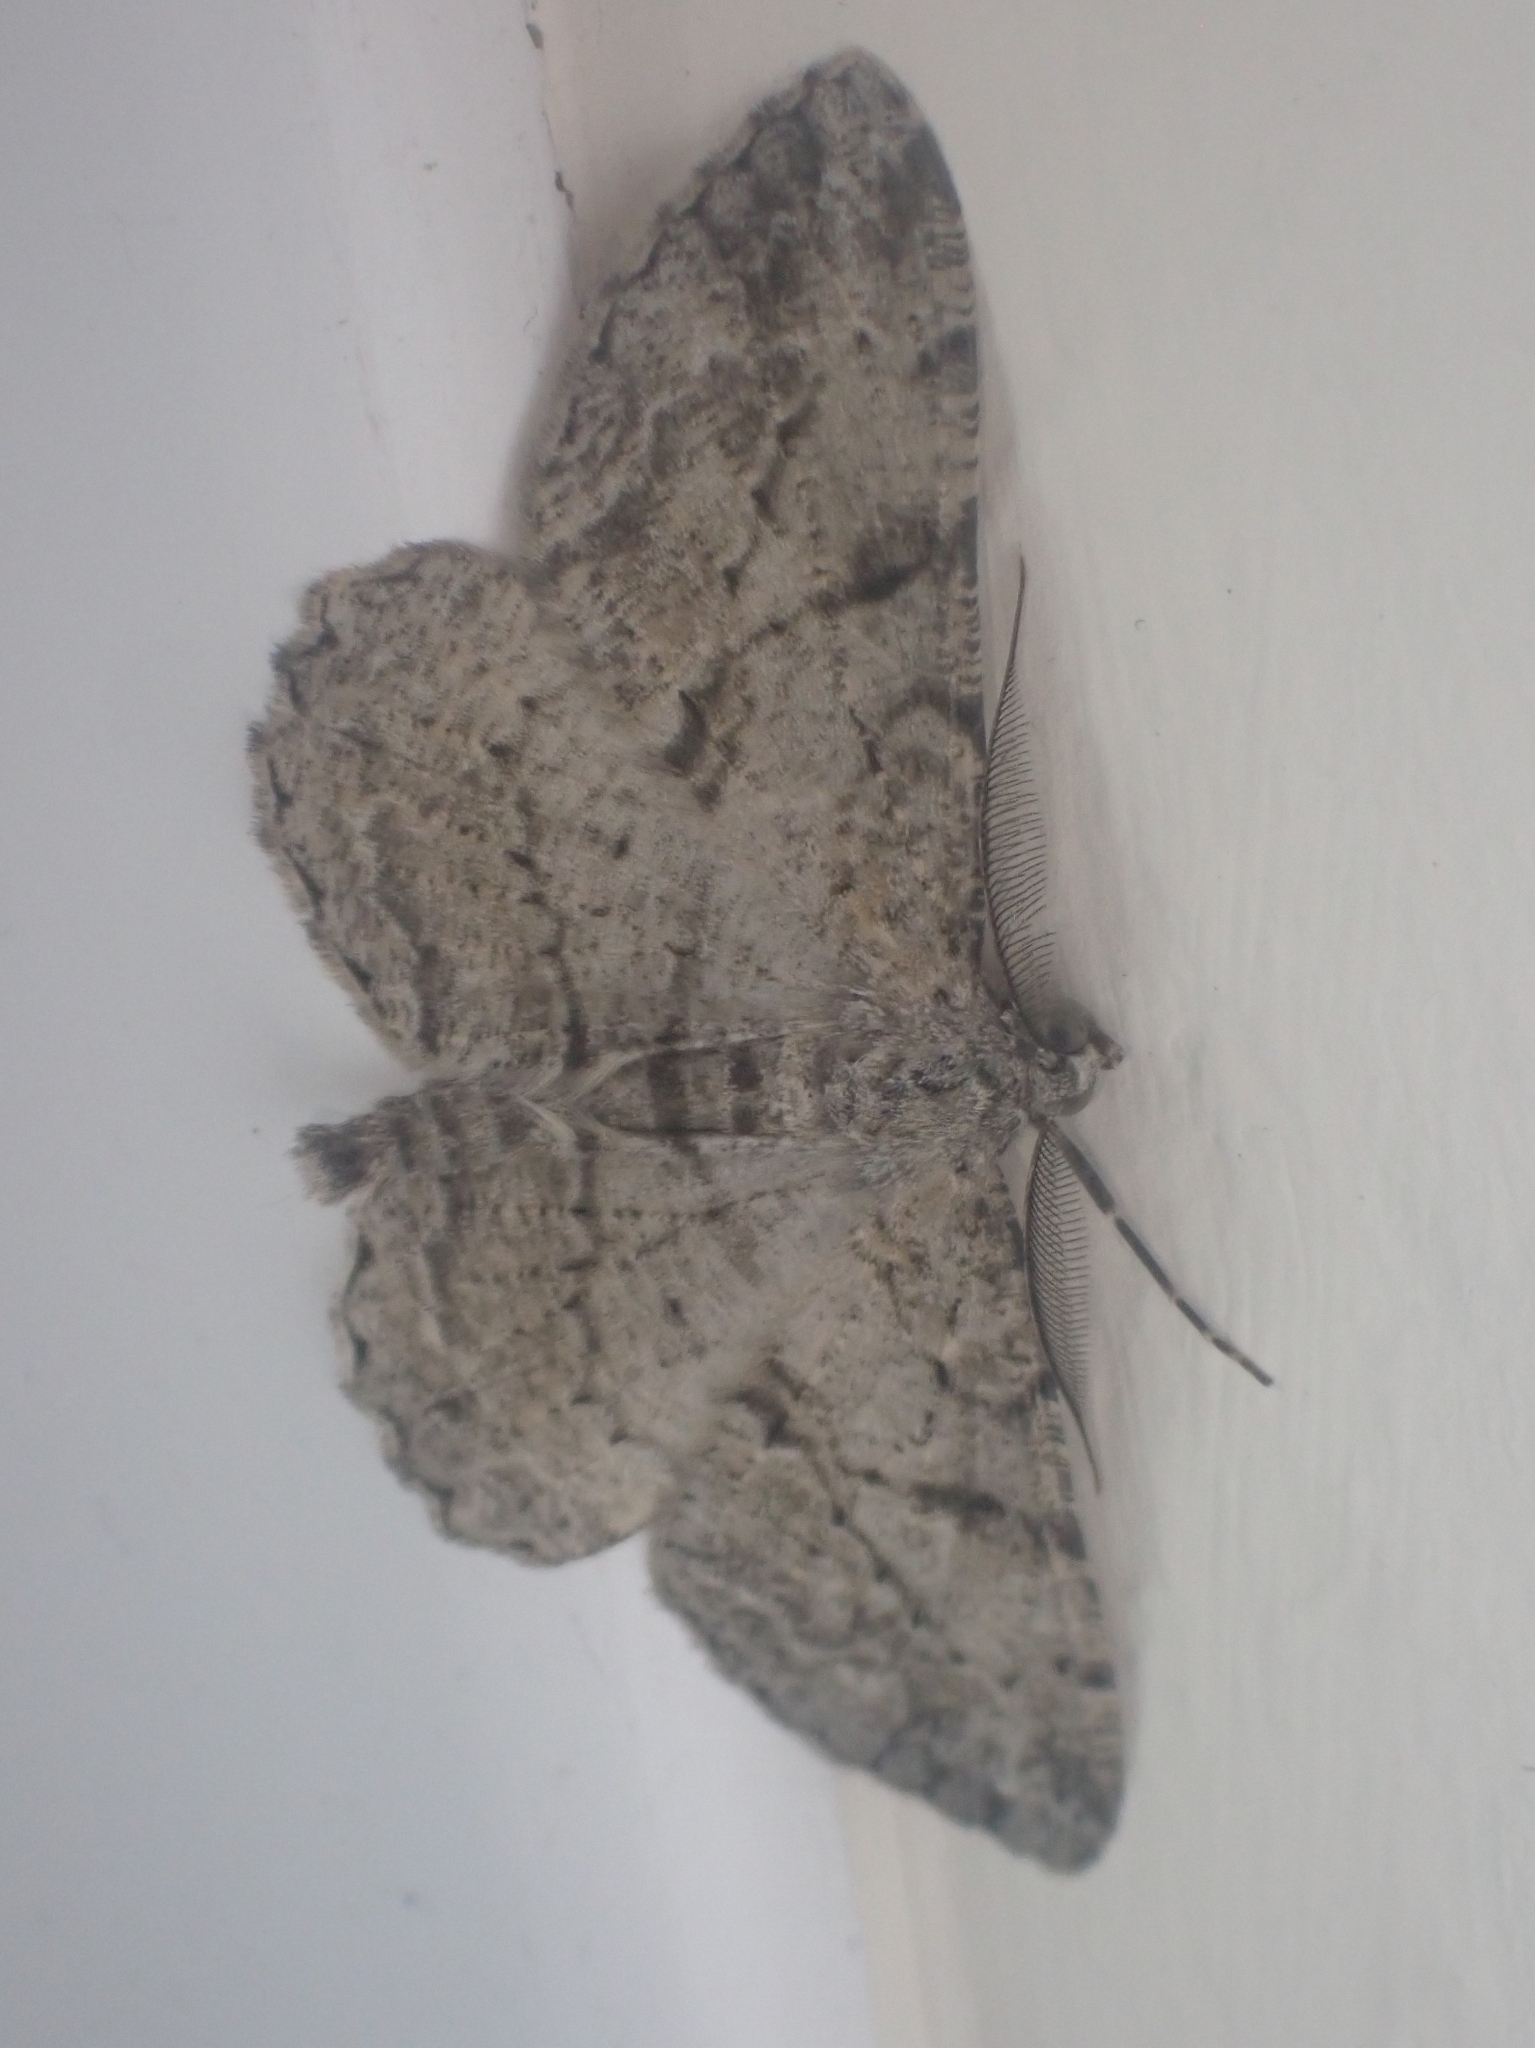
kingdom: Animalia
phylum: Arthropoda
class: Insecta
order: Lepidoptera
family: Geometridae
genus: Peribatodes
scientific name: Peribatodes rhomboidaria
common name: Willow beauty
